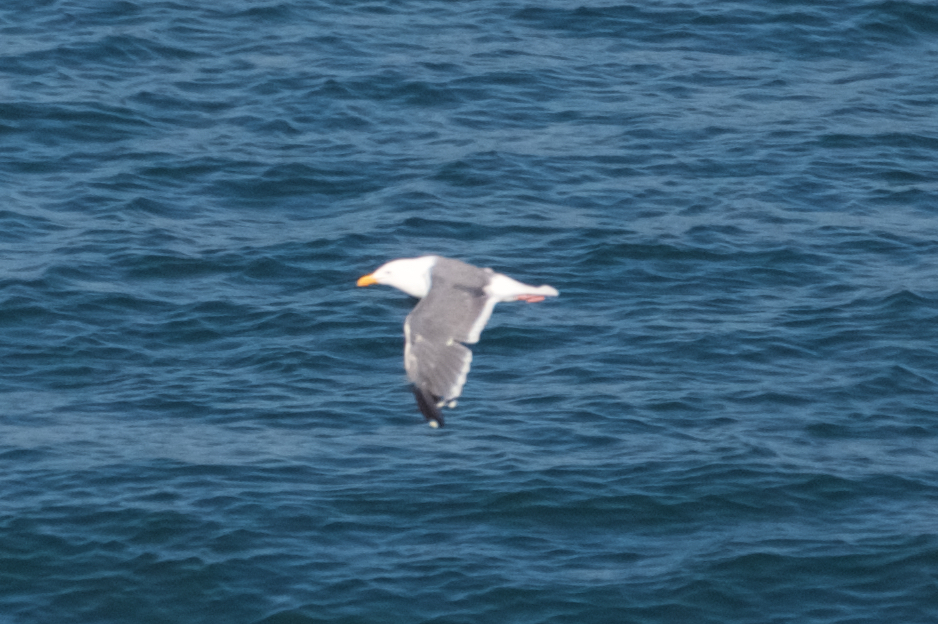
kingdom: Animalia
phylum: Chordata
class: Aves
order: Charadriiformes
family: Laridae
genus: Larus
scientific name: Larus occidentalis
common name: Western gull
